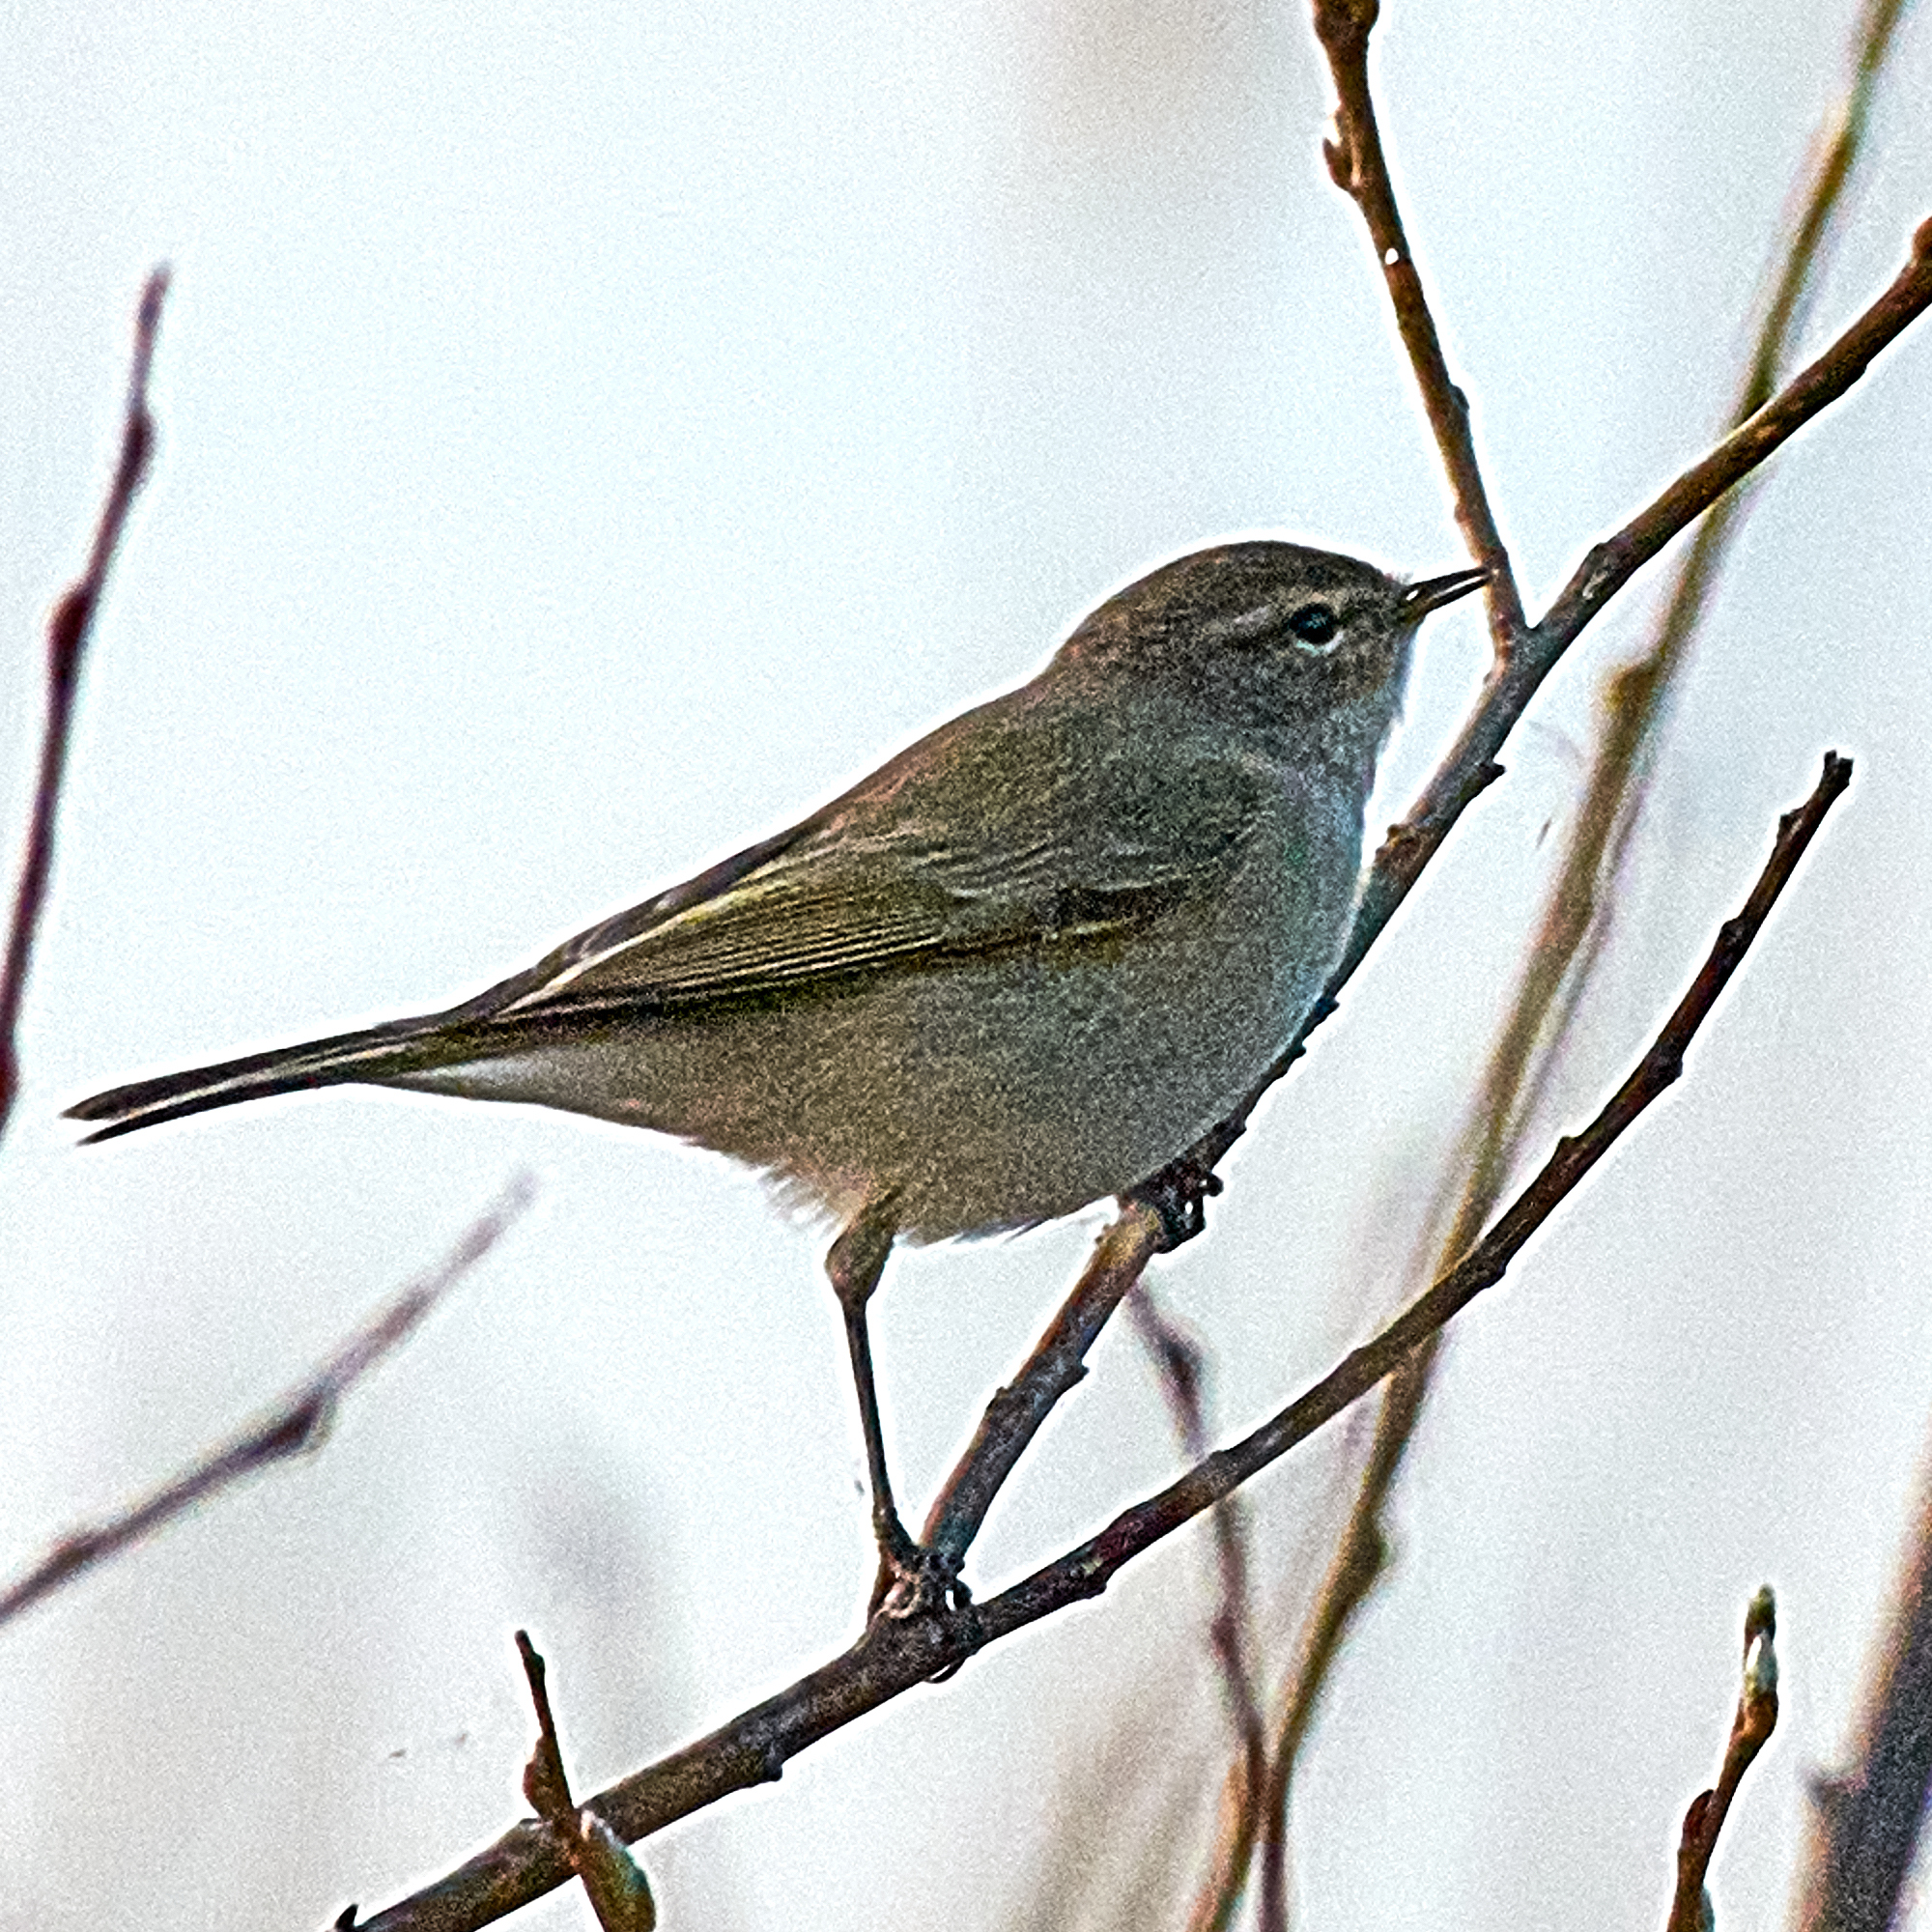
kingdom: Animalia
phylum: Chordata
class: Aves
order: Passeriformes
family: Phylloscopidae
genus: Phylloscopus
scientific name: Phylloscopus collybita
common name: Common chiffchaff
